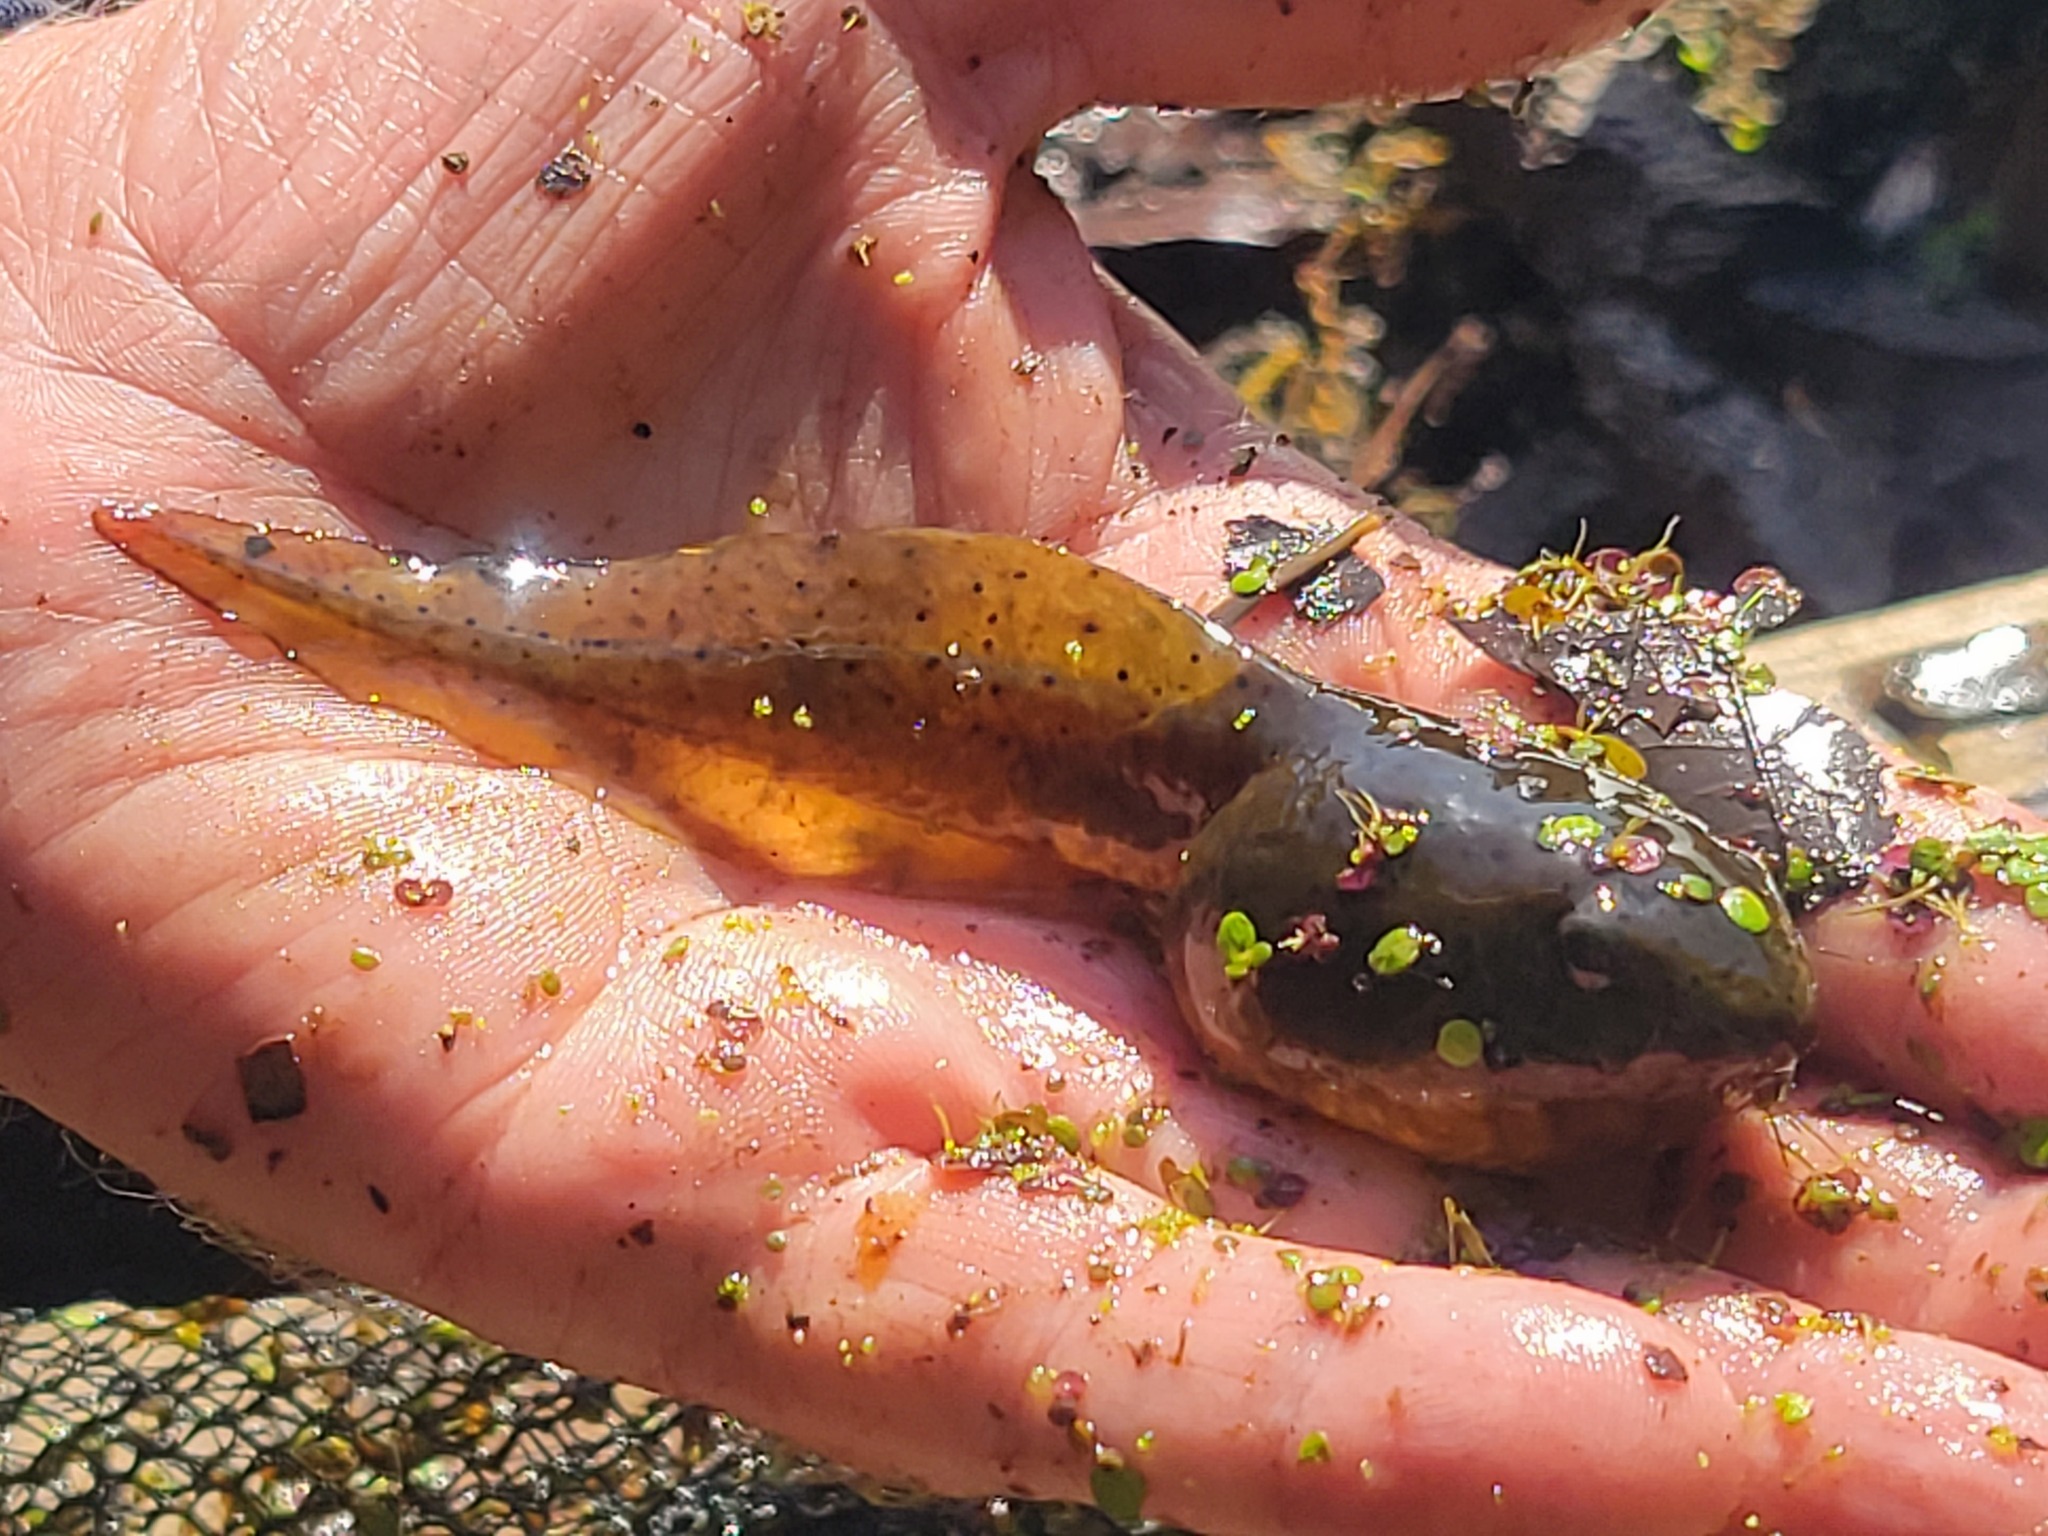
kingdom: Animalia
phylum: Chordata
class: Amphibia
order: Anura
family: Ranidae
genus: Lithobates
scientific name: Lithobates catesbeianus
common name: American bullfrog
